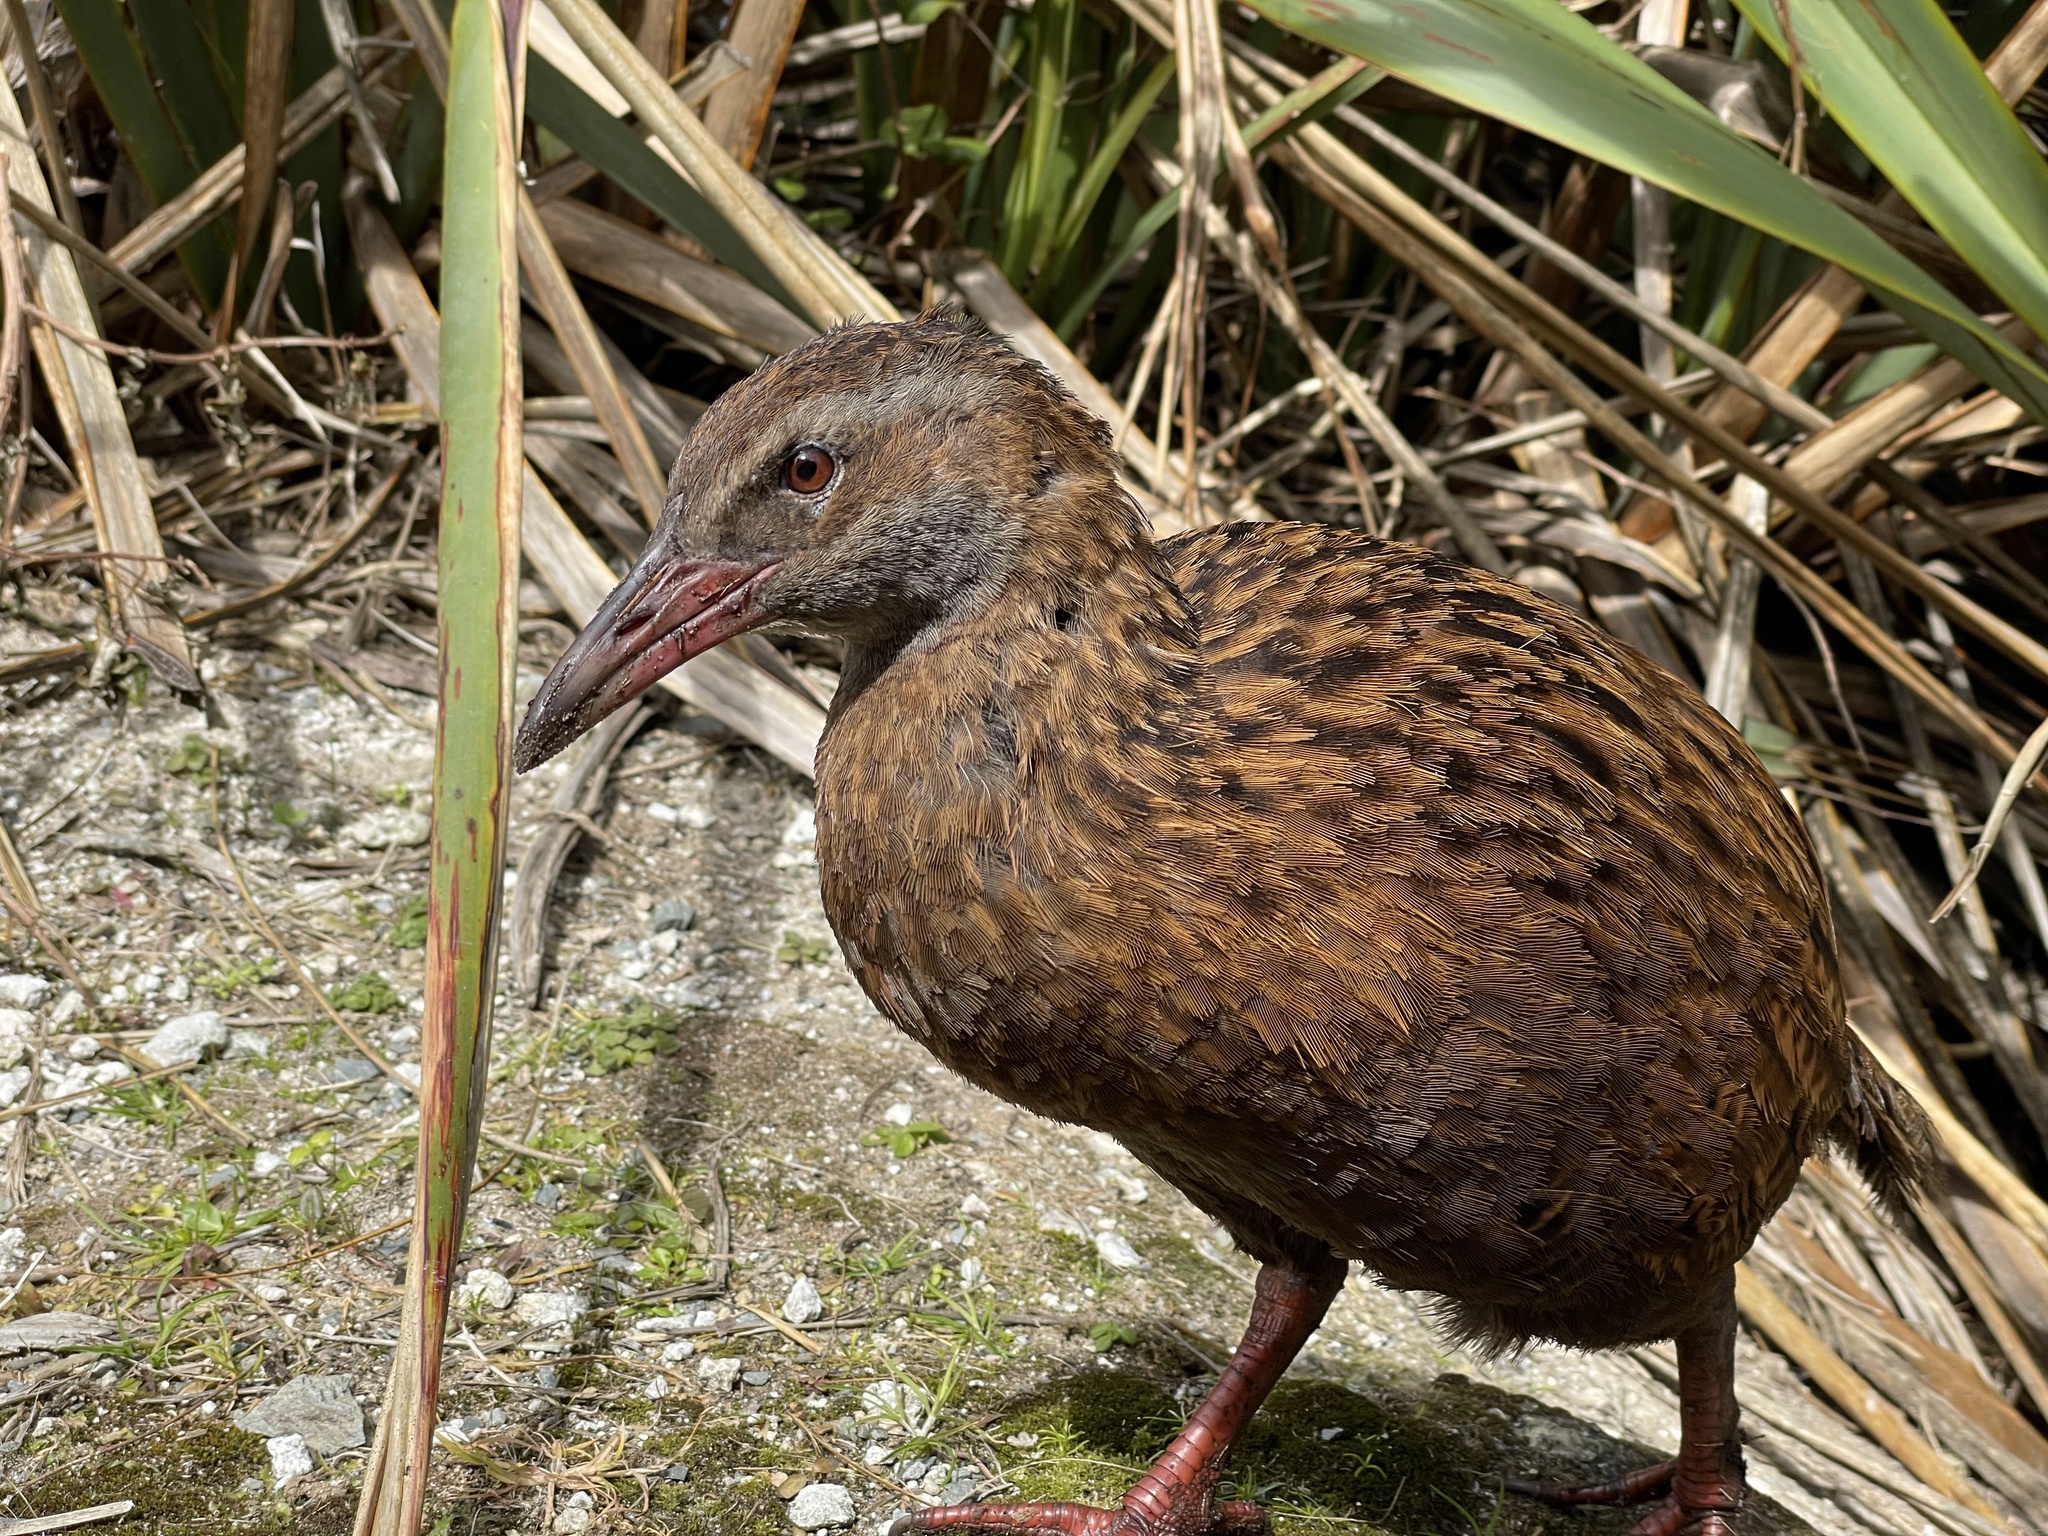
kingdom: Animalia
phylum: Chordata
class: Aves
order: Gruiformes
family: Rallidae
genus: Gallirallus
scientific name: Gallirallus australis
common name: Weka
